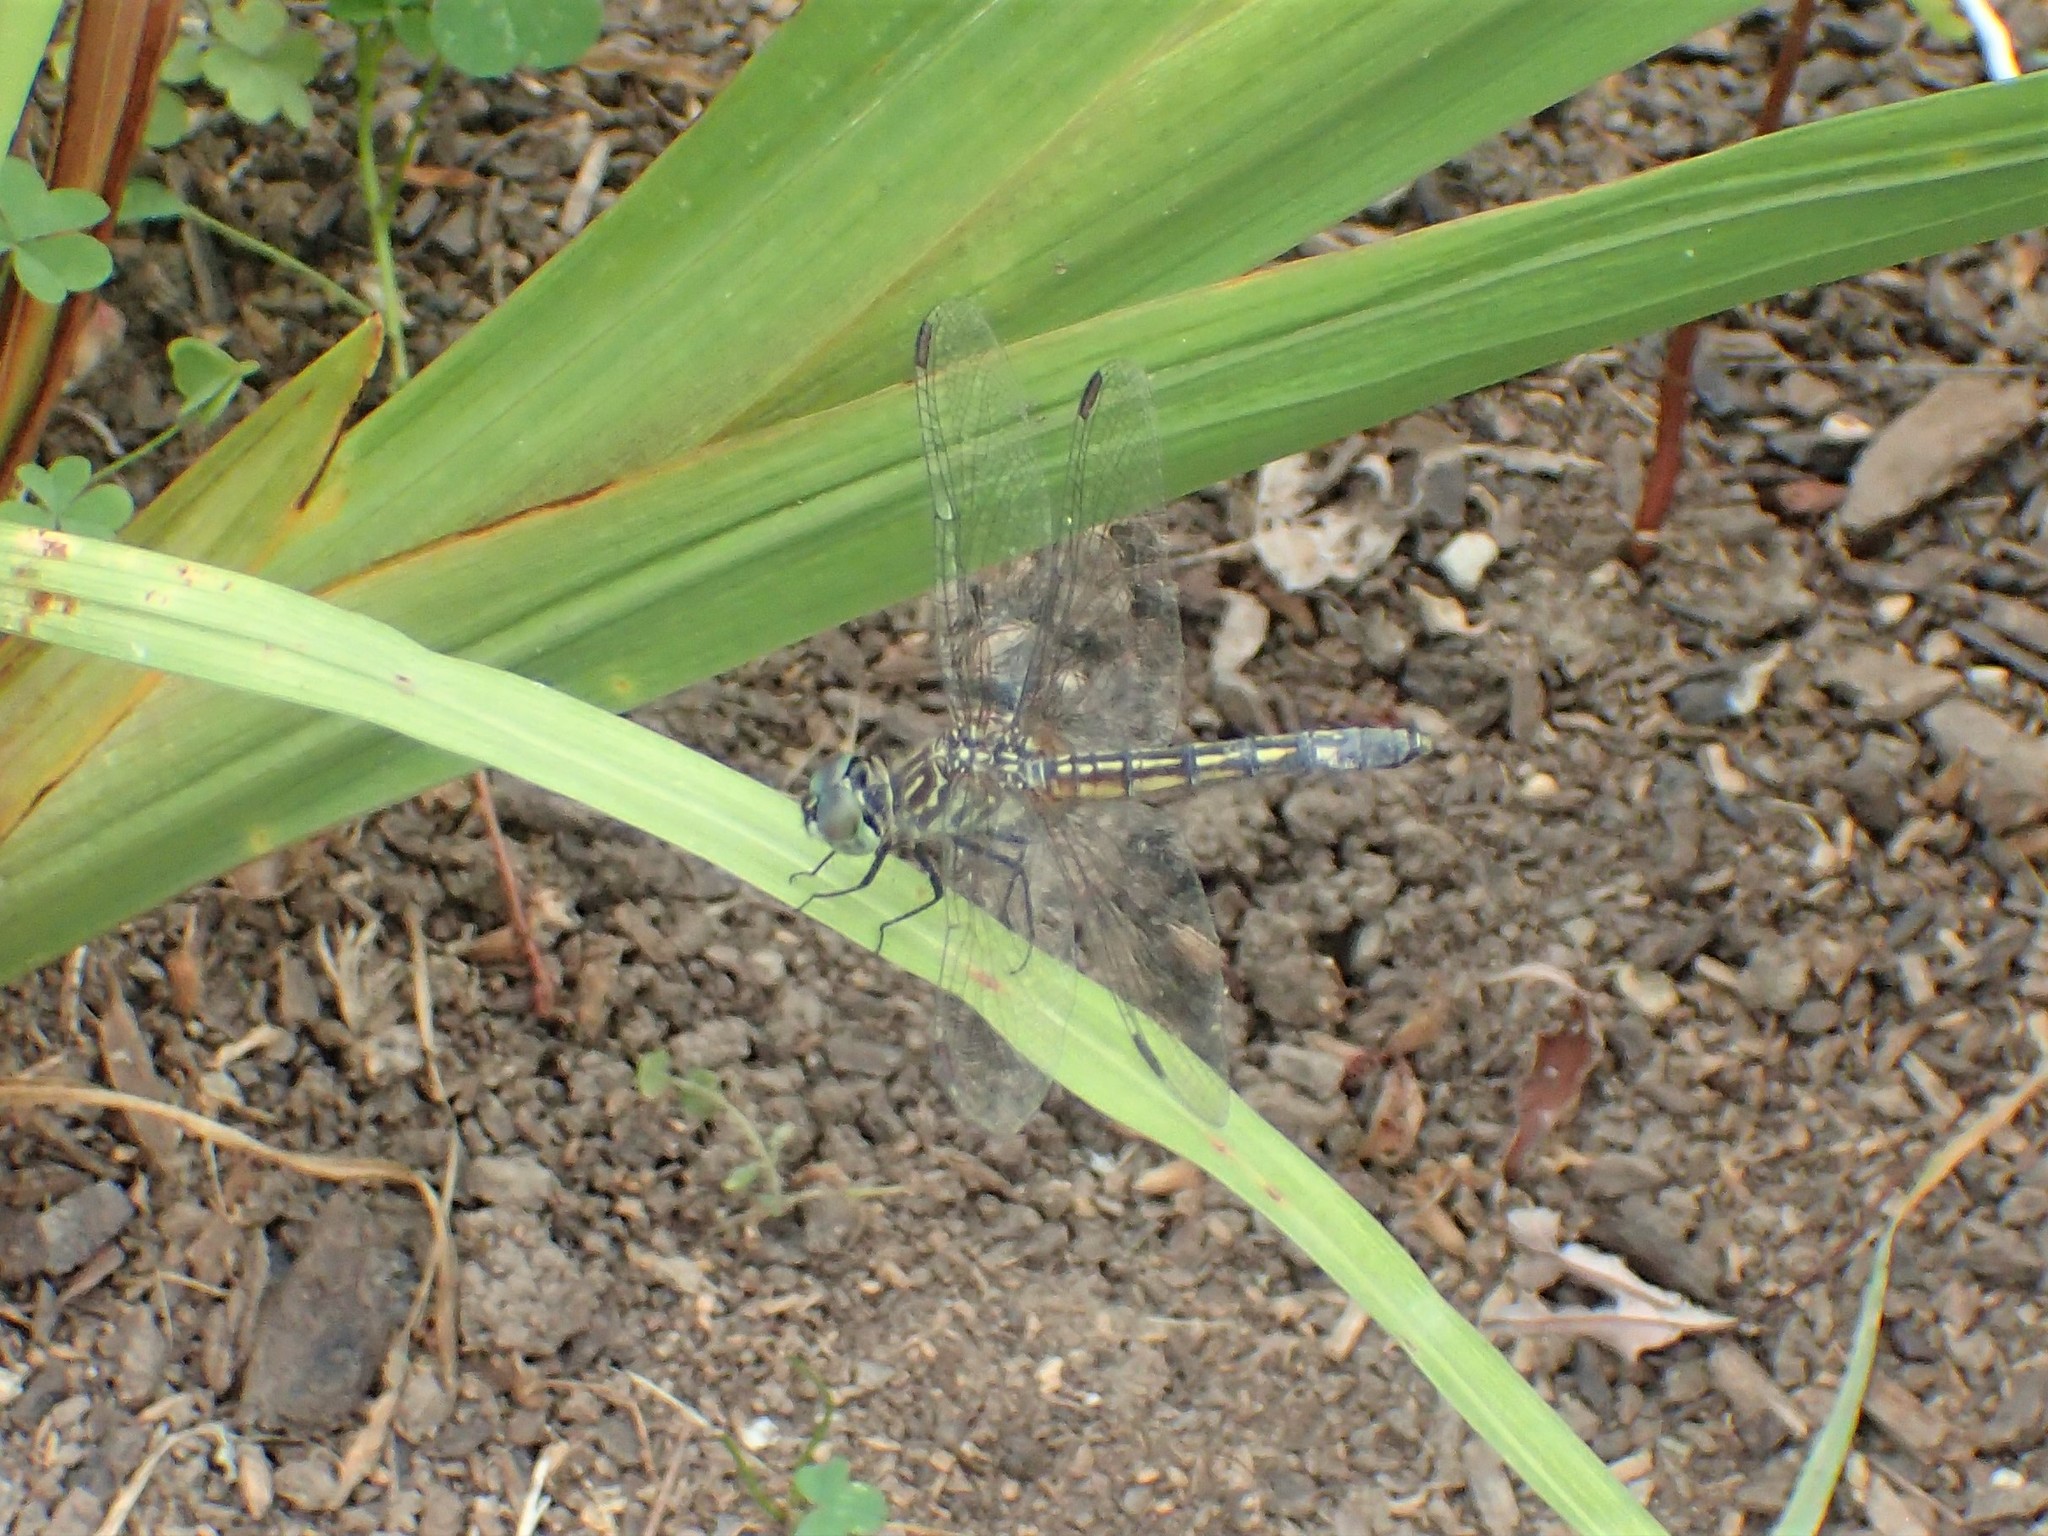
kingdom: Animalia
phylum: Arthropoda
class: Insecta
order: Odonata
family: Libellulidae
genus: Pachydiplax
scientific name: Pachydiplax longipennis
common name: Blue dasher
